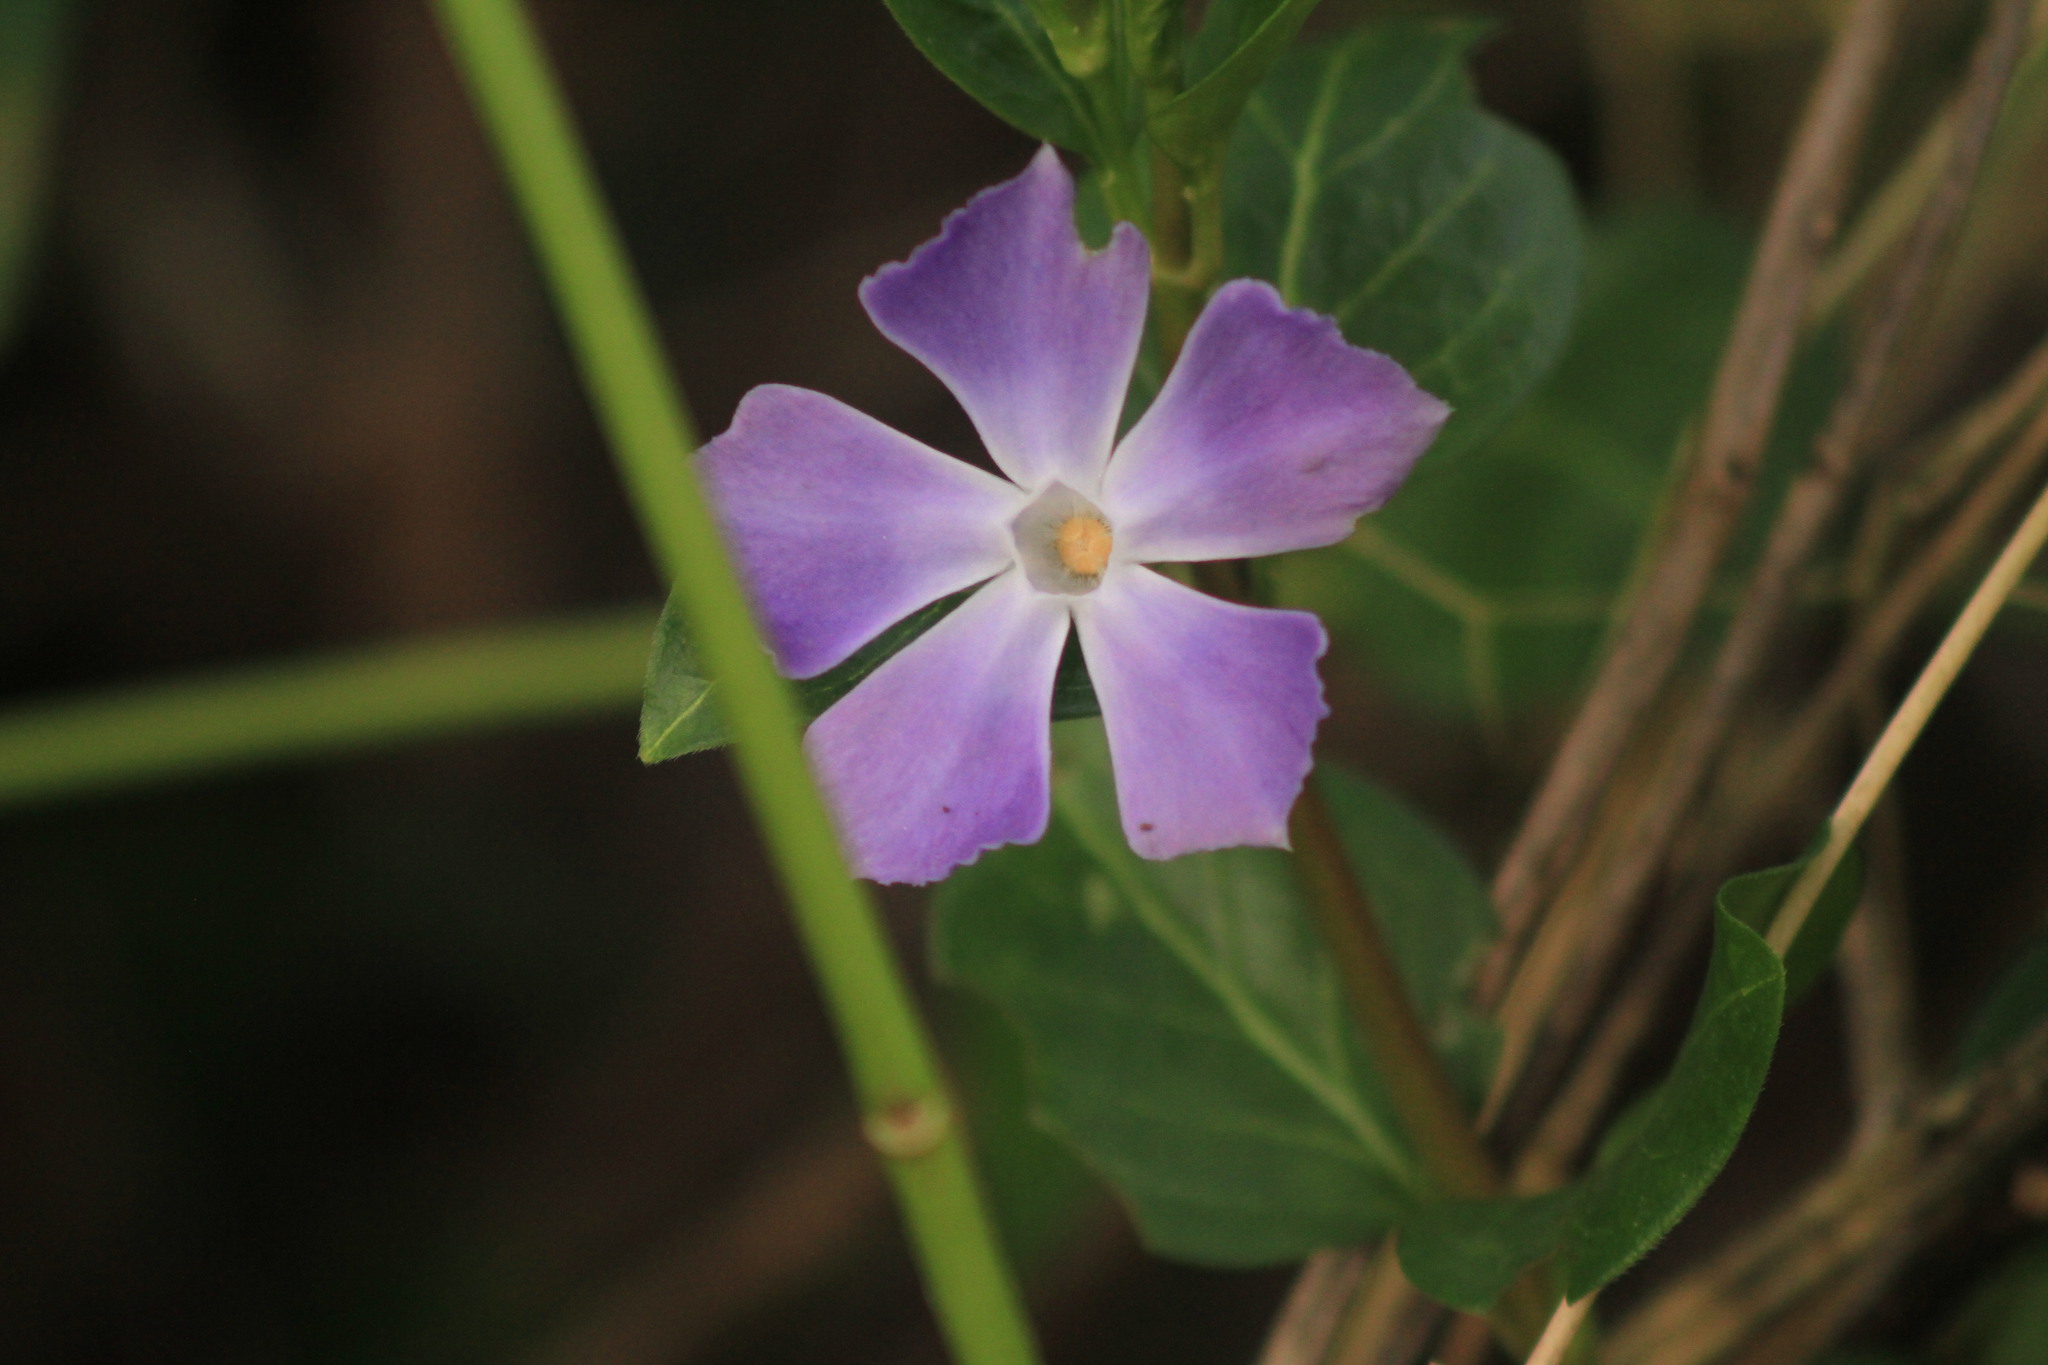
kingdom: Plantae
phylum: Tracheophyta
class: Magnoliopsida
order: Gentianales
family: Apocynaceae
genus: Vinca
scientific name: Vinca major
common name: Greater periwinkle
